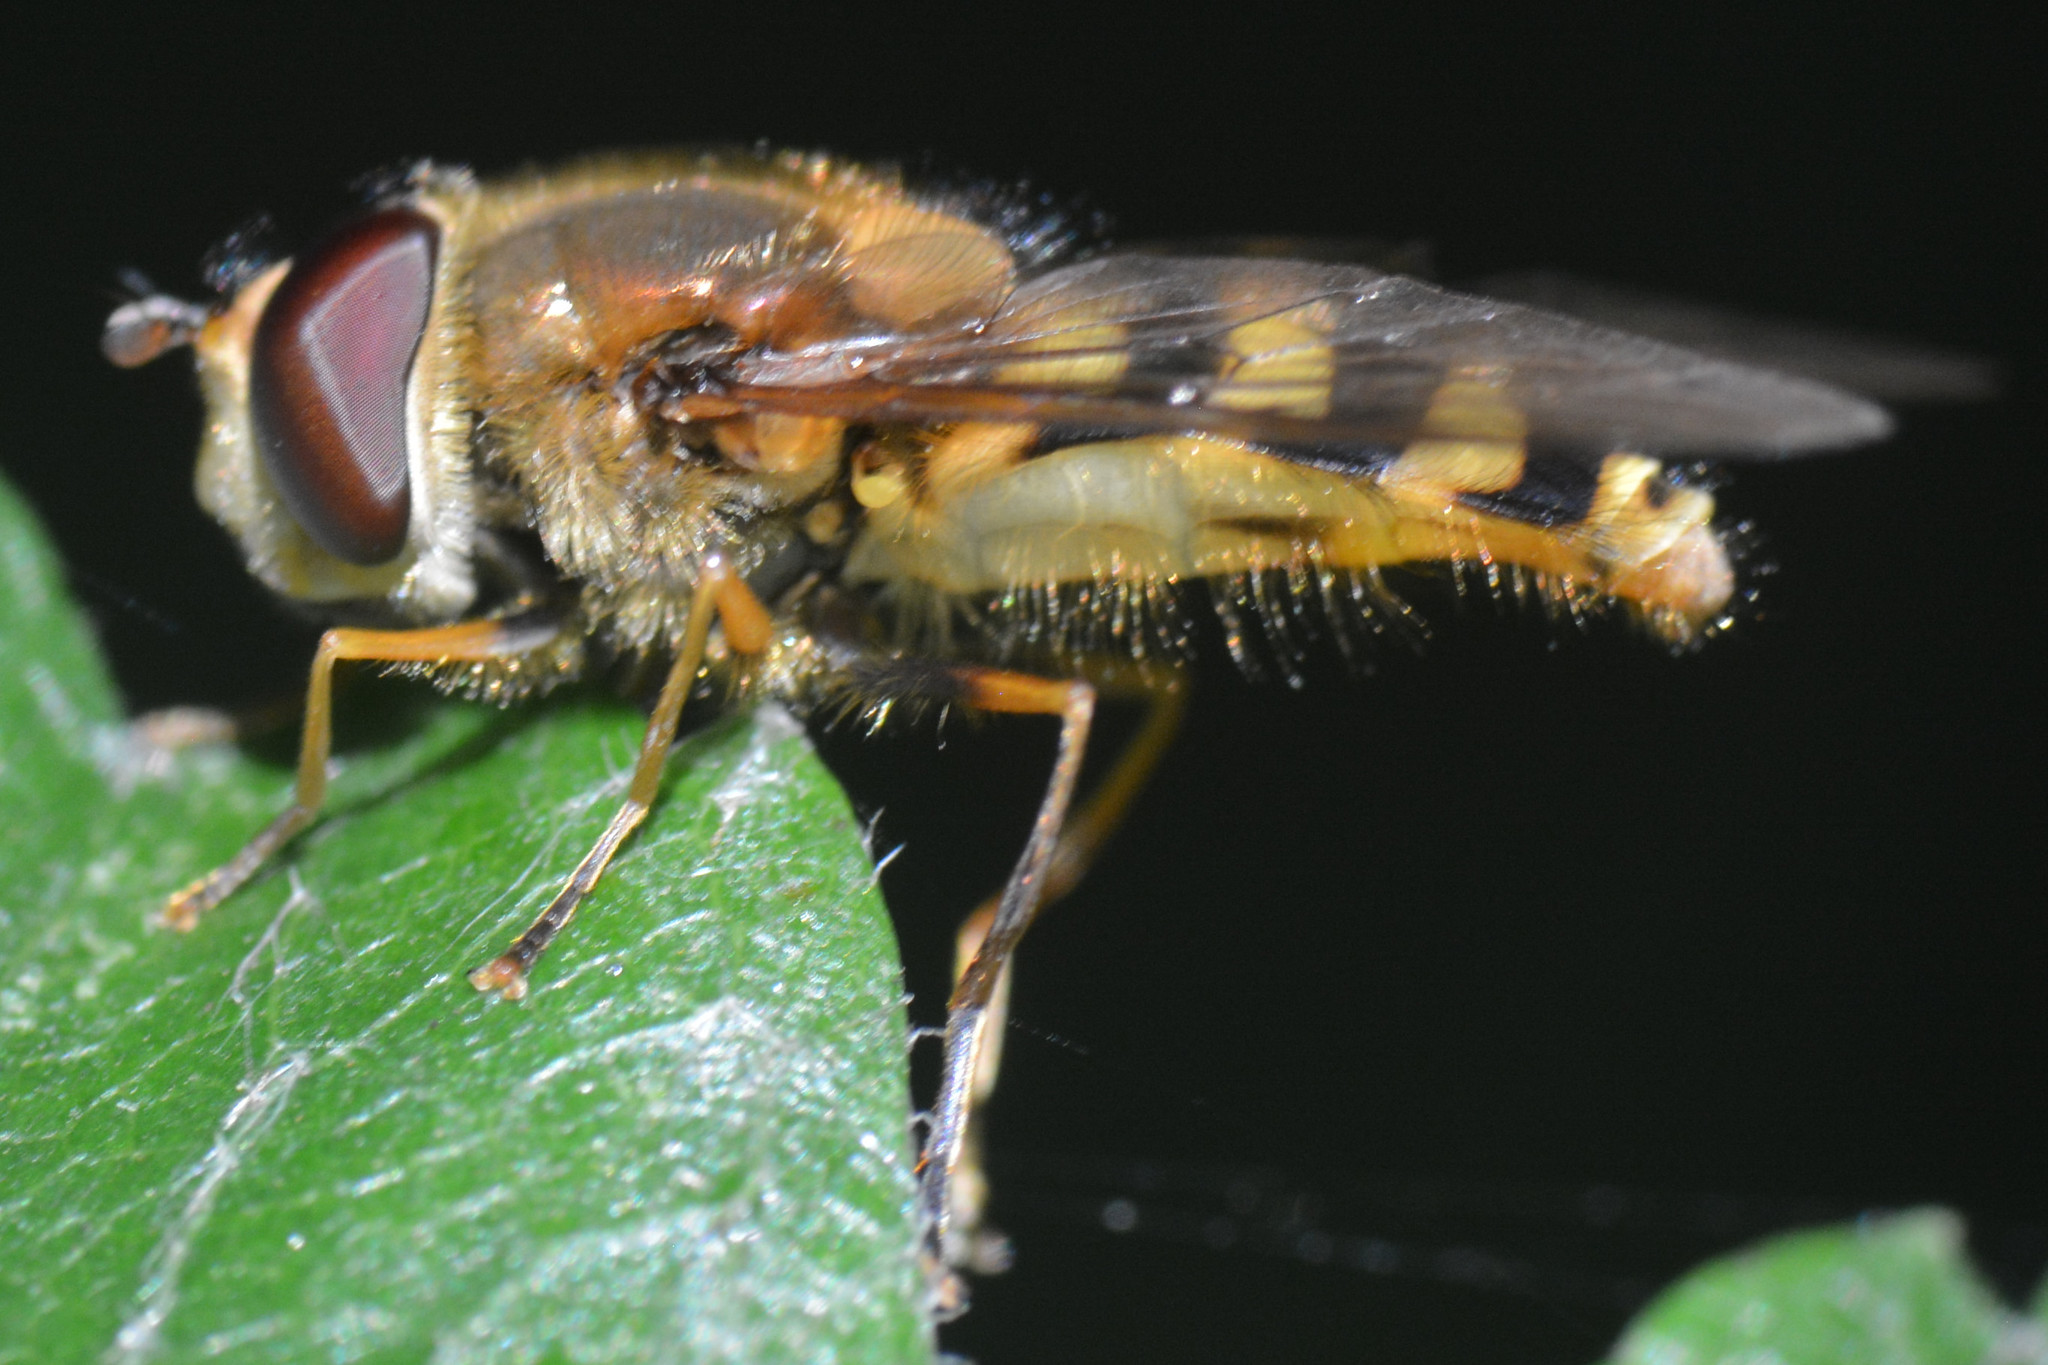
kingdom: Animalia
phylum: Arthropoda
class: Insecta
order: Diptera
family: Syrphidae
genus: Syrphus
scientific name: Syrphus
